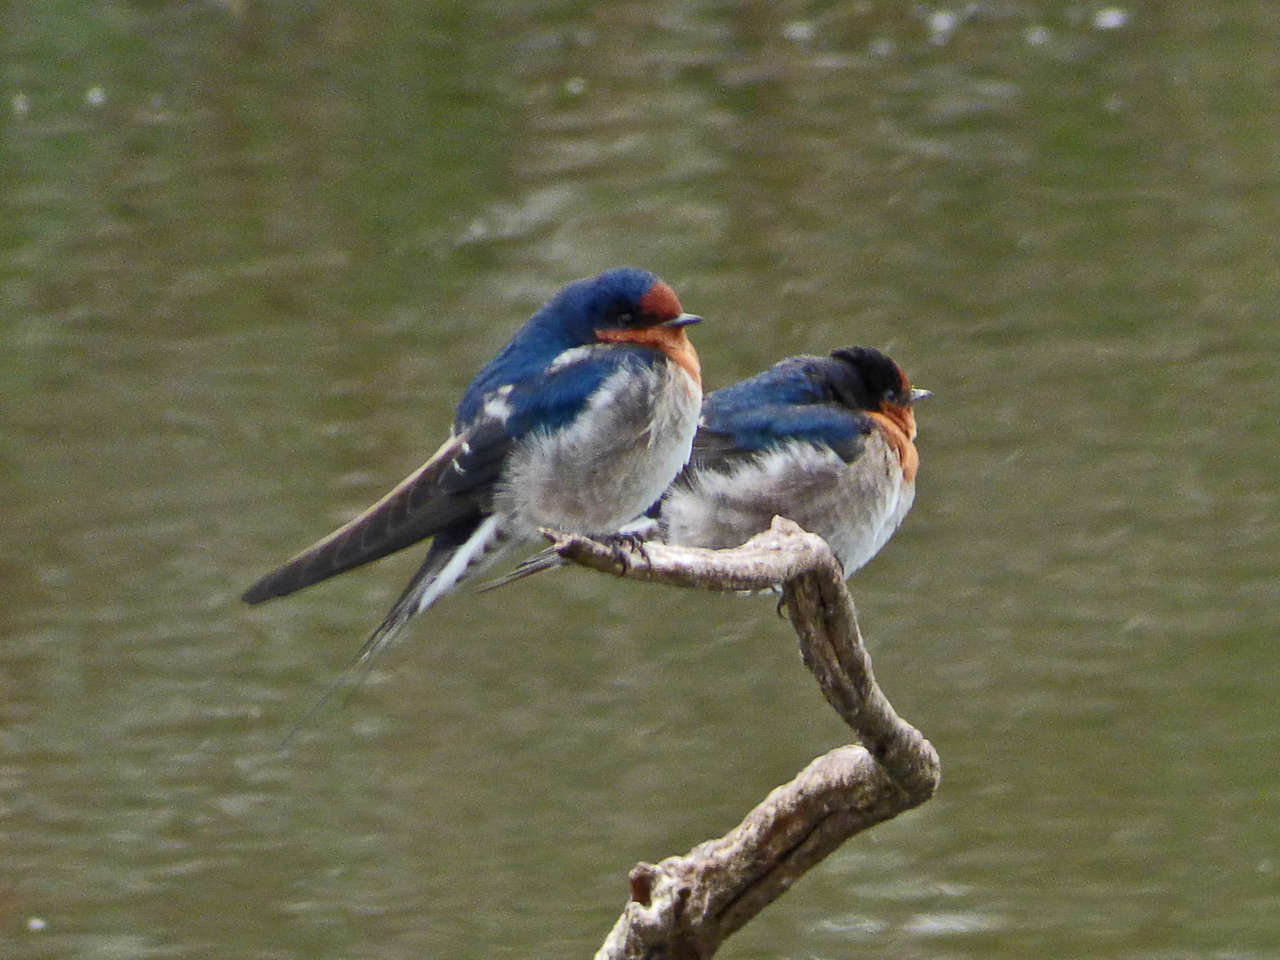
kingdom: Animalia
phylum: Chordata
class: Aves
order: Passeriformes
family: Hirundinidae
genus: Hirundo
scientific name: Hirundo neoxena
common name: Welcome swallow
